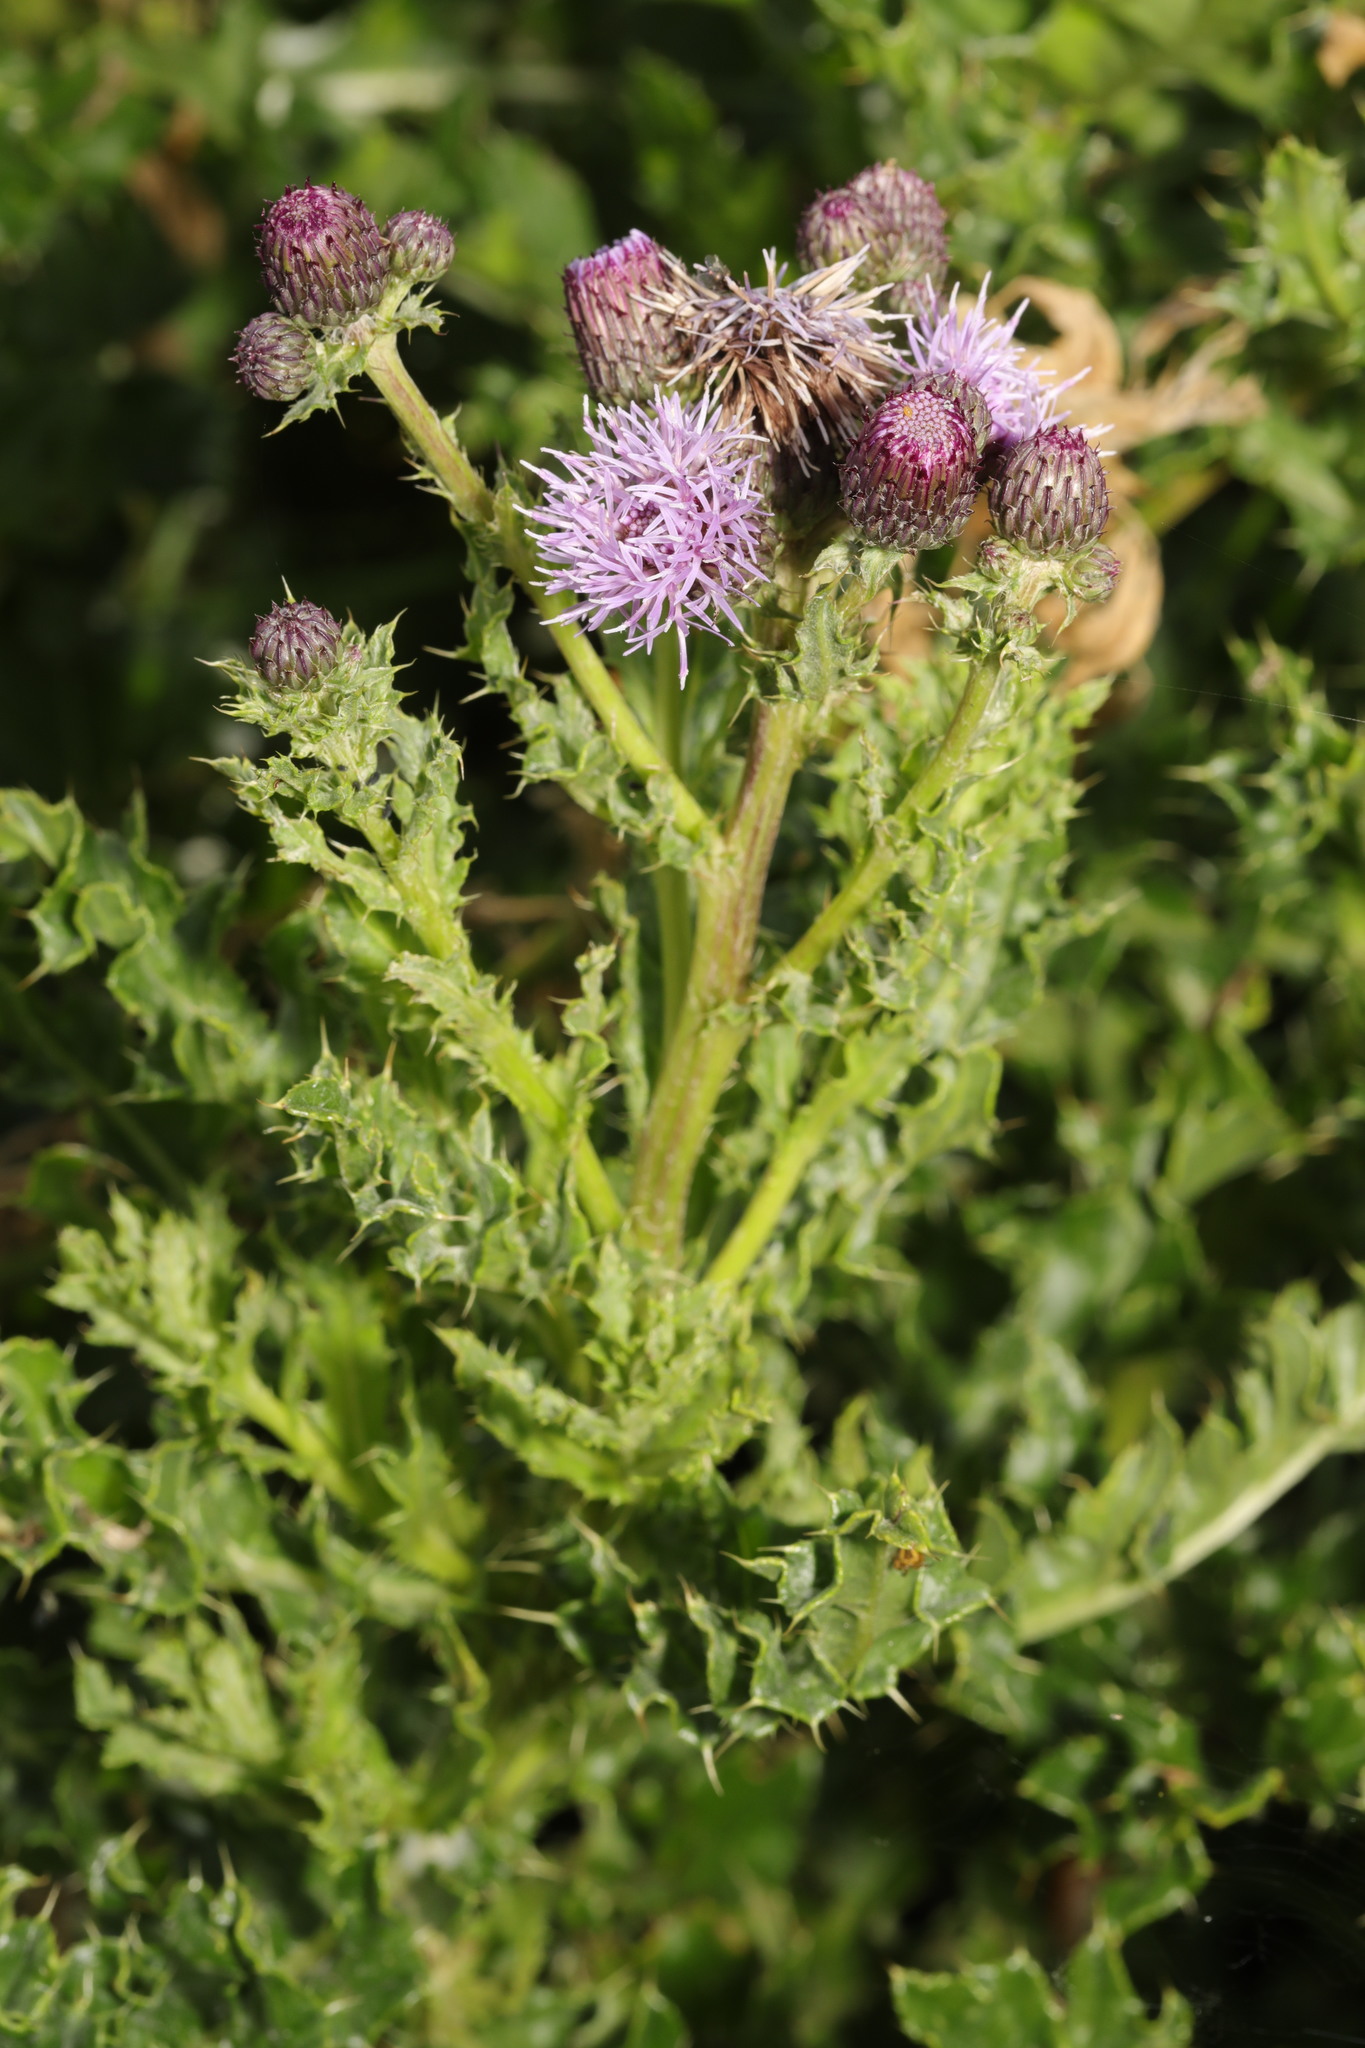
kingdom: Plantae
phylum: Tracheophyta
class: Magnoliopsida
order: Asterales
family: Asteraceae
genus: Cirsium
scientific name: Cirsium arvense
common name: Creeping thistle
